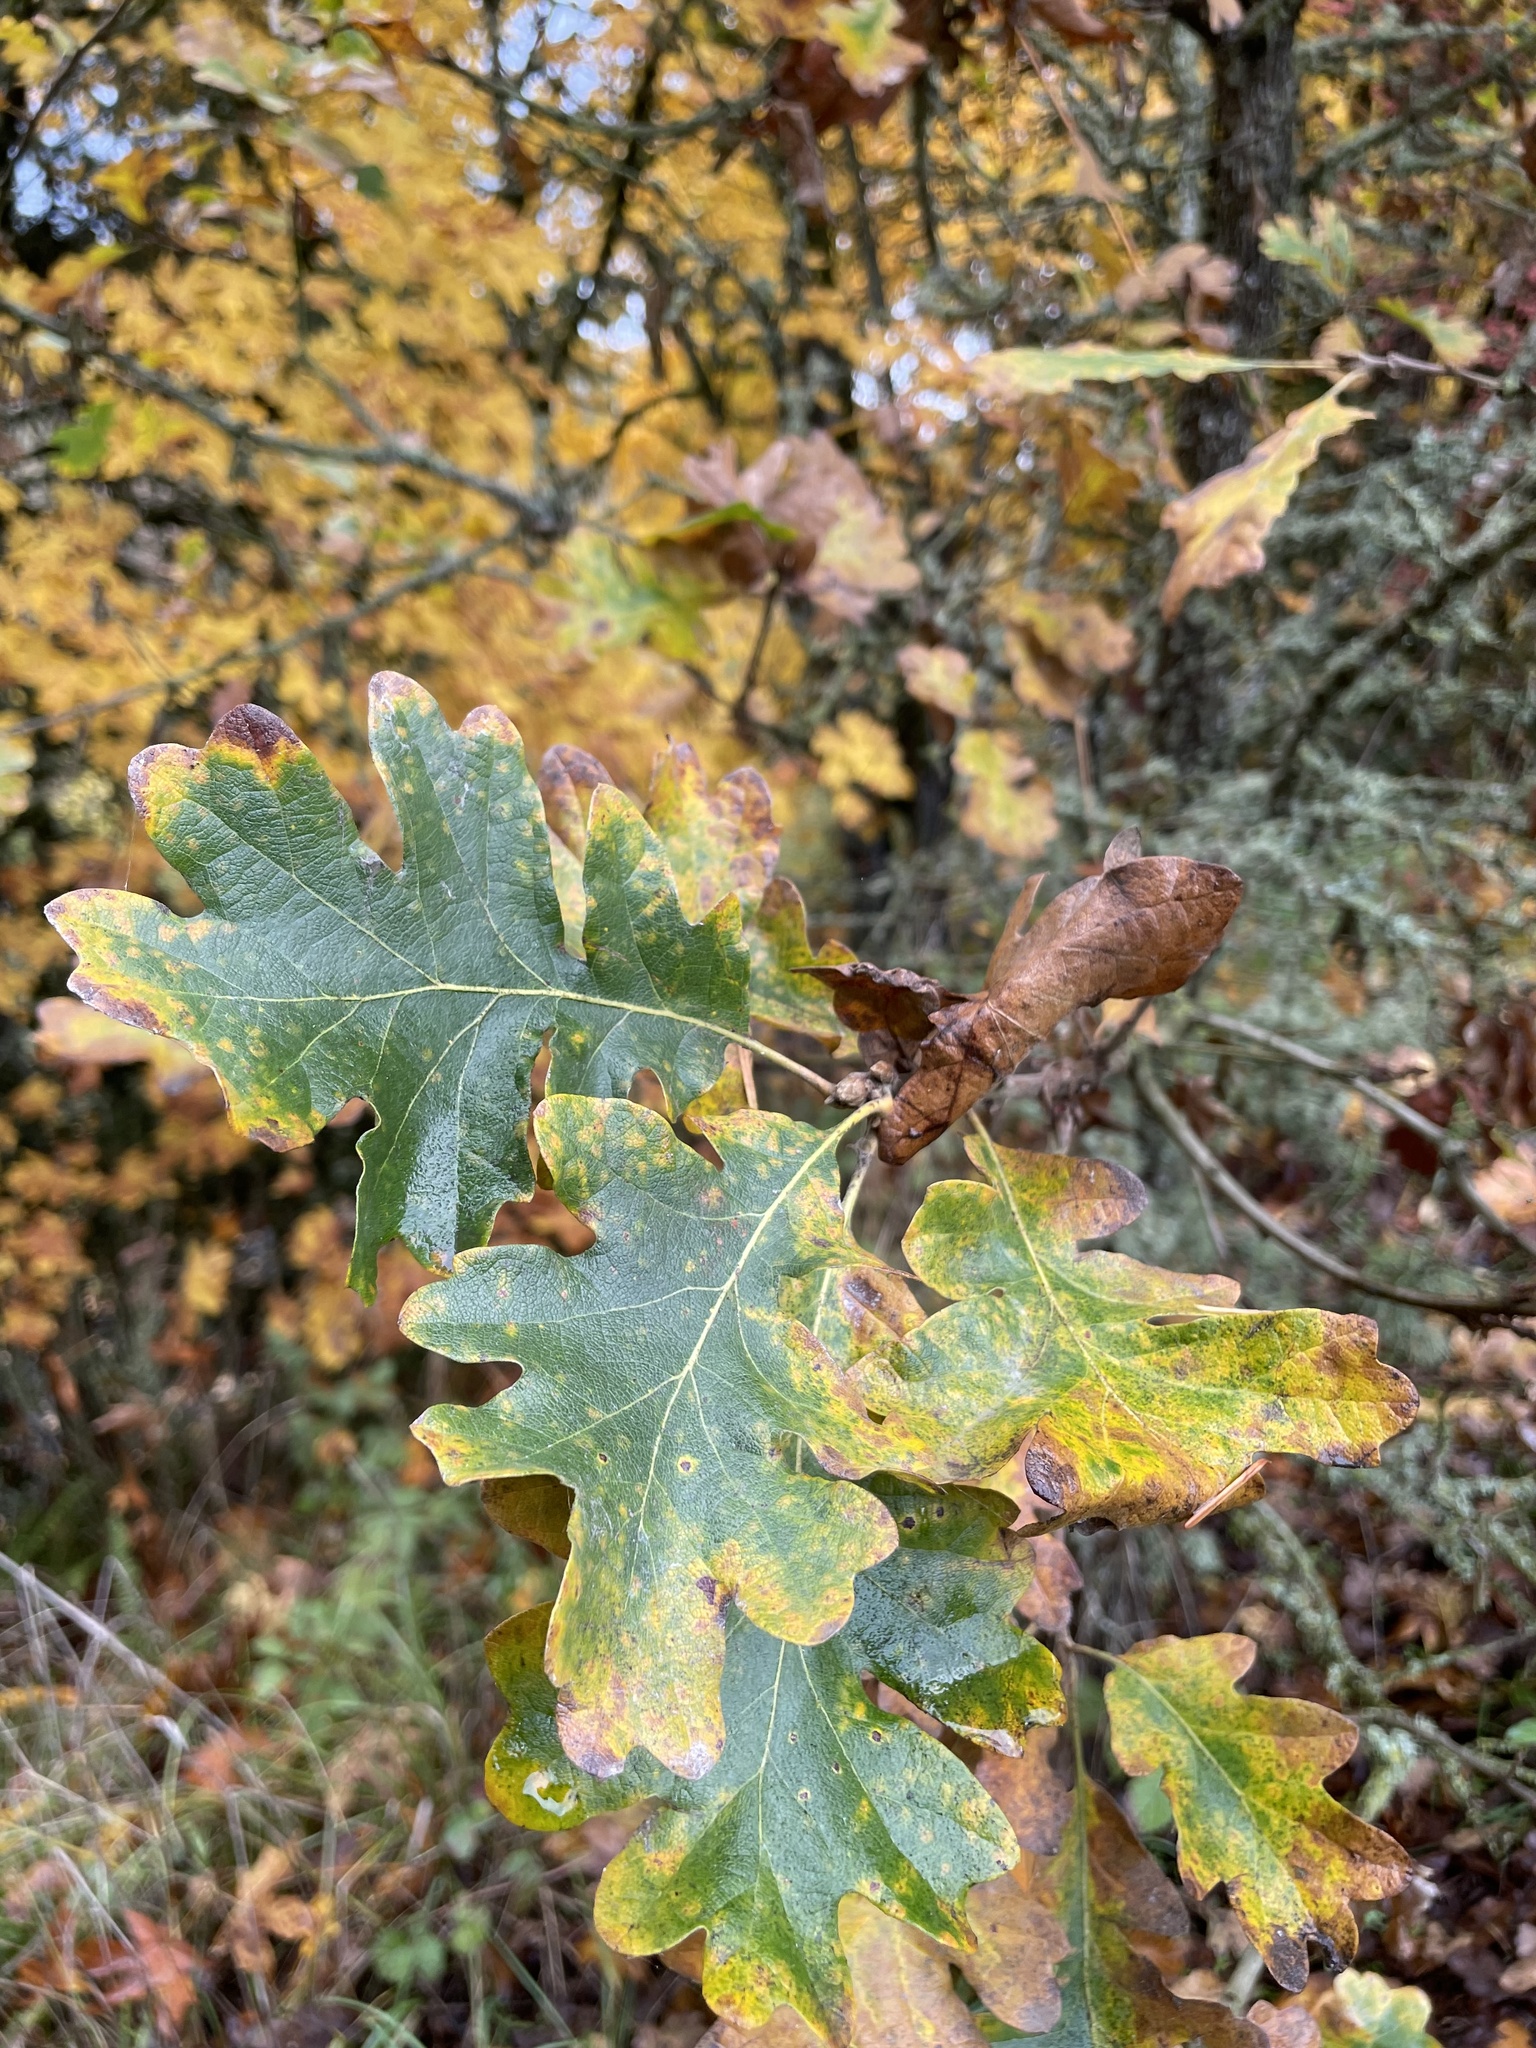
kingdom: Plantae
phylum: Tracheophyta
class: Magnoliopsida
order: Fagales
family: Fagaceae
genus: Quercus
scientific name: Quercus garryana
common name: Garry oak
